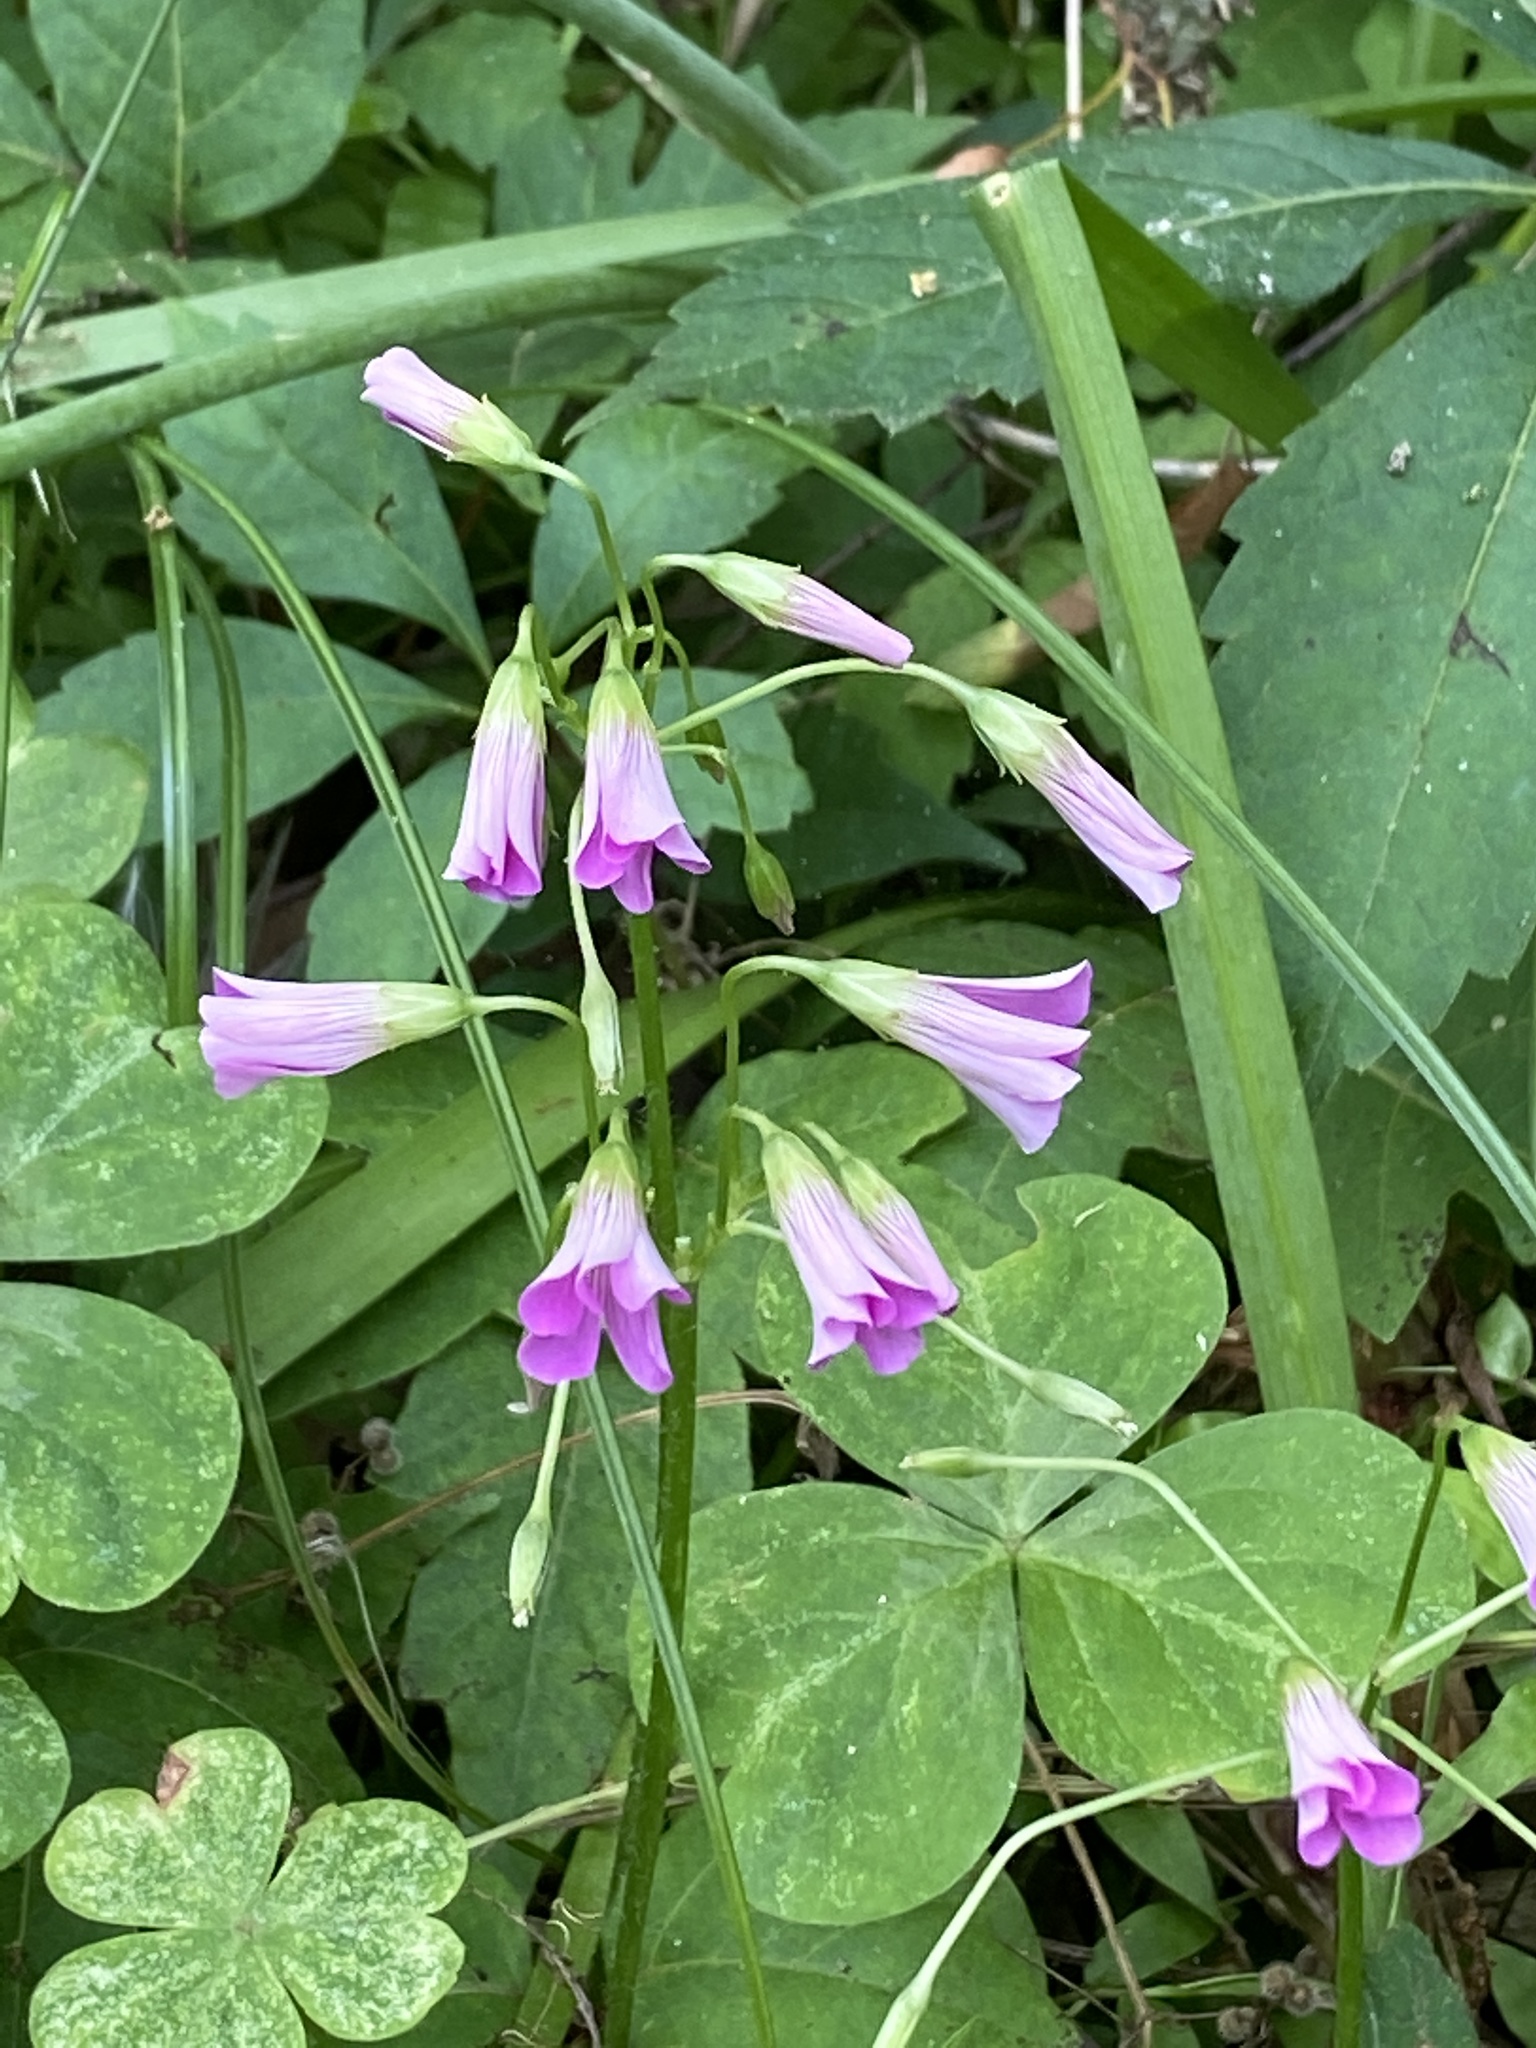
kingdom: Plantae
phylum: Tracheophyta
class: Magnoliopsida
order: Oxalidales
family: Oxalidaceae
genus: Oxalis
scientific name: Oxalis debilis
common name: Large-flowered pink-sorrel
